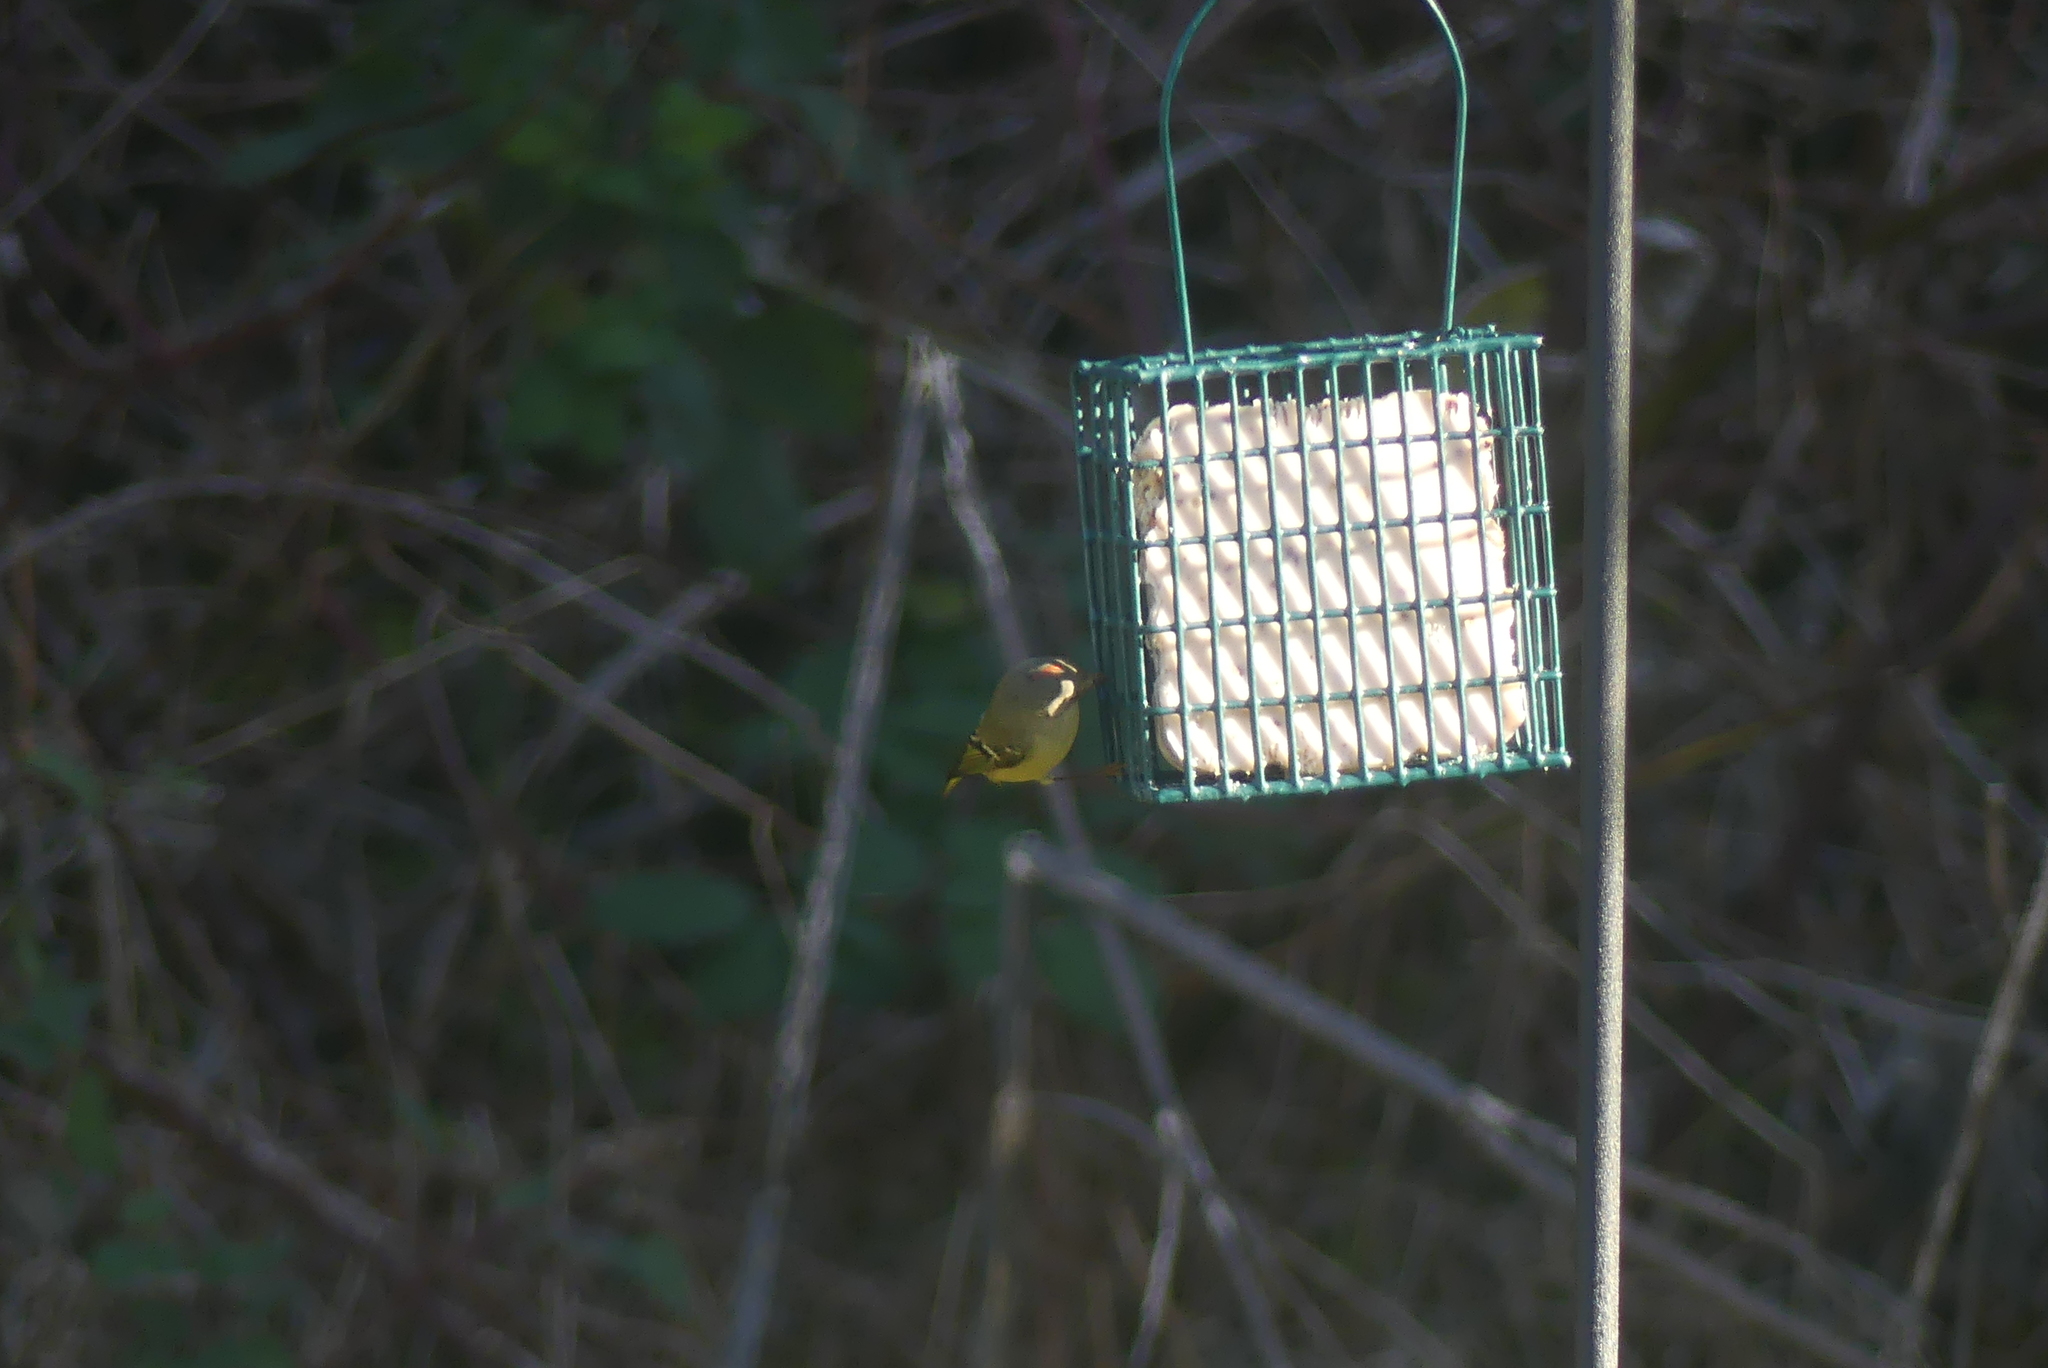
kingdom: Animalia
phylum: Chordata
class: Aves
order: Passeriformes
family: Regulidae
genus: Regulus
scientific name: Regulus calendula
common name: Ruby-crowned kinglet
